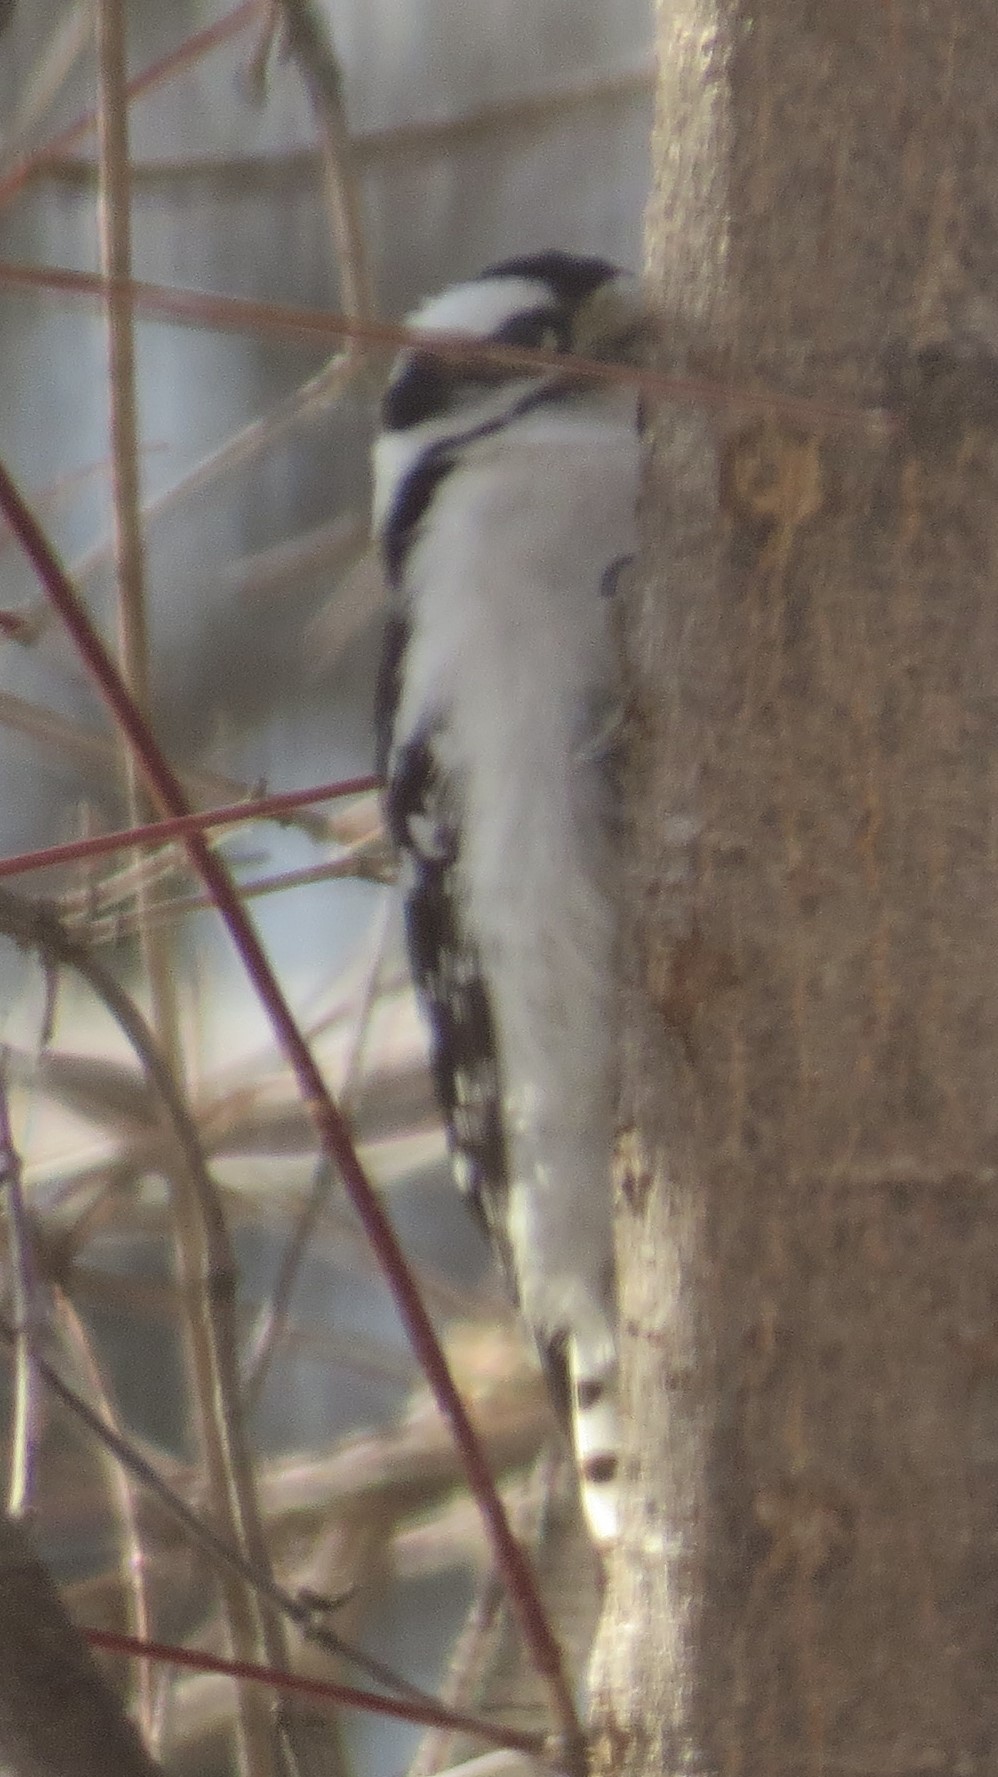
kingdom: Animalia
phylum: Chordata
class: Aves
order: Piciformes
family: Picidae
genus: Dryobates
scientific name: Dryobates pubescens
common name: Downy woodpecker
